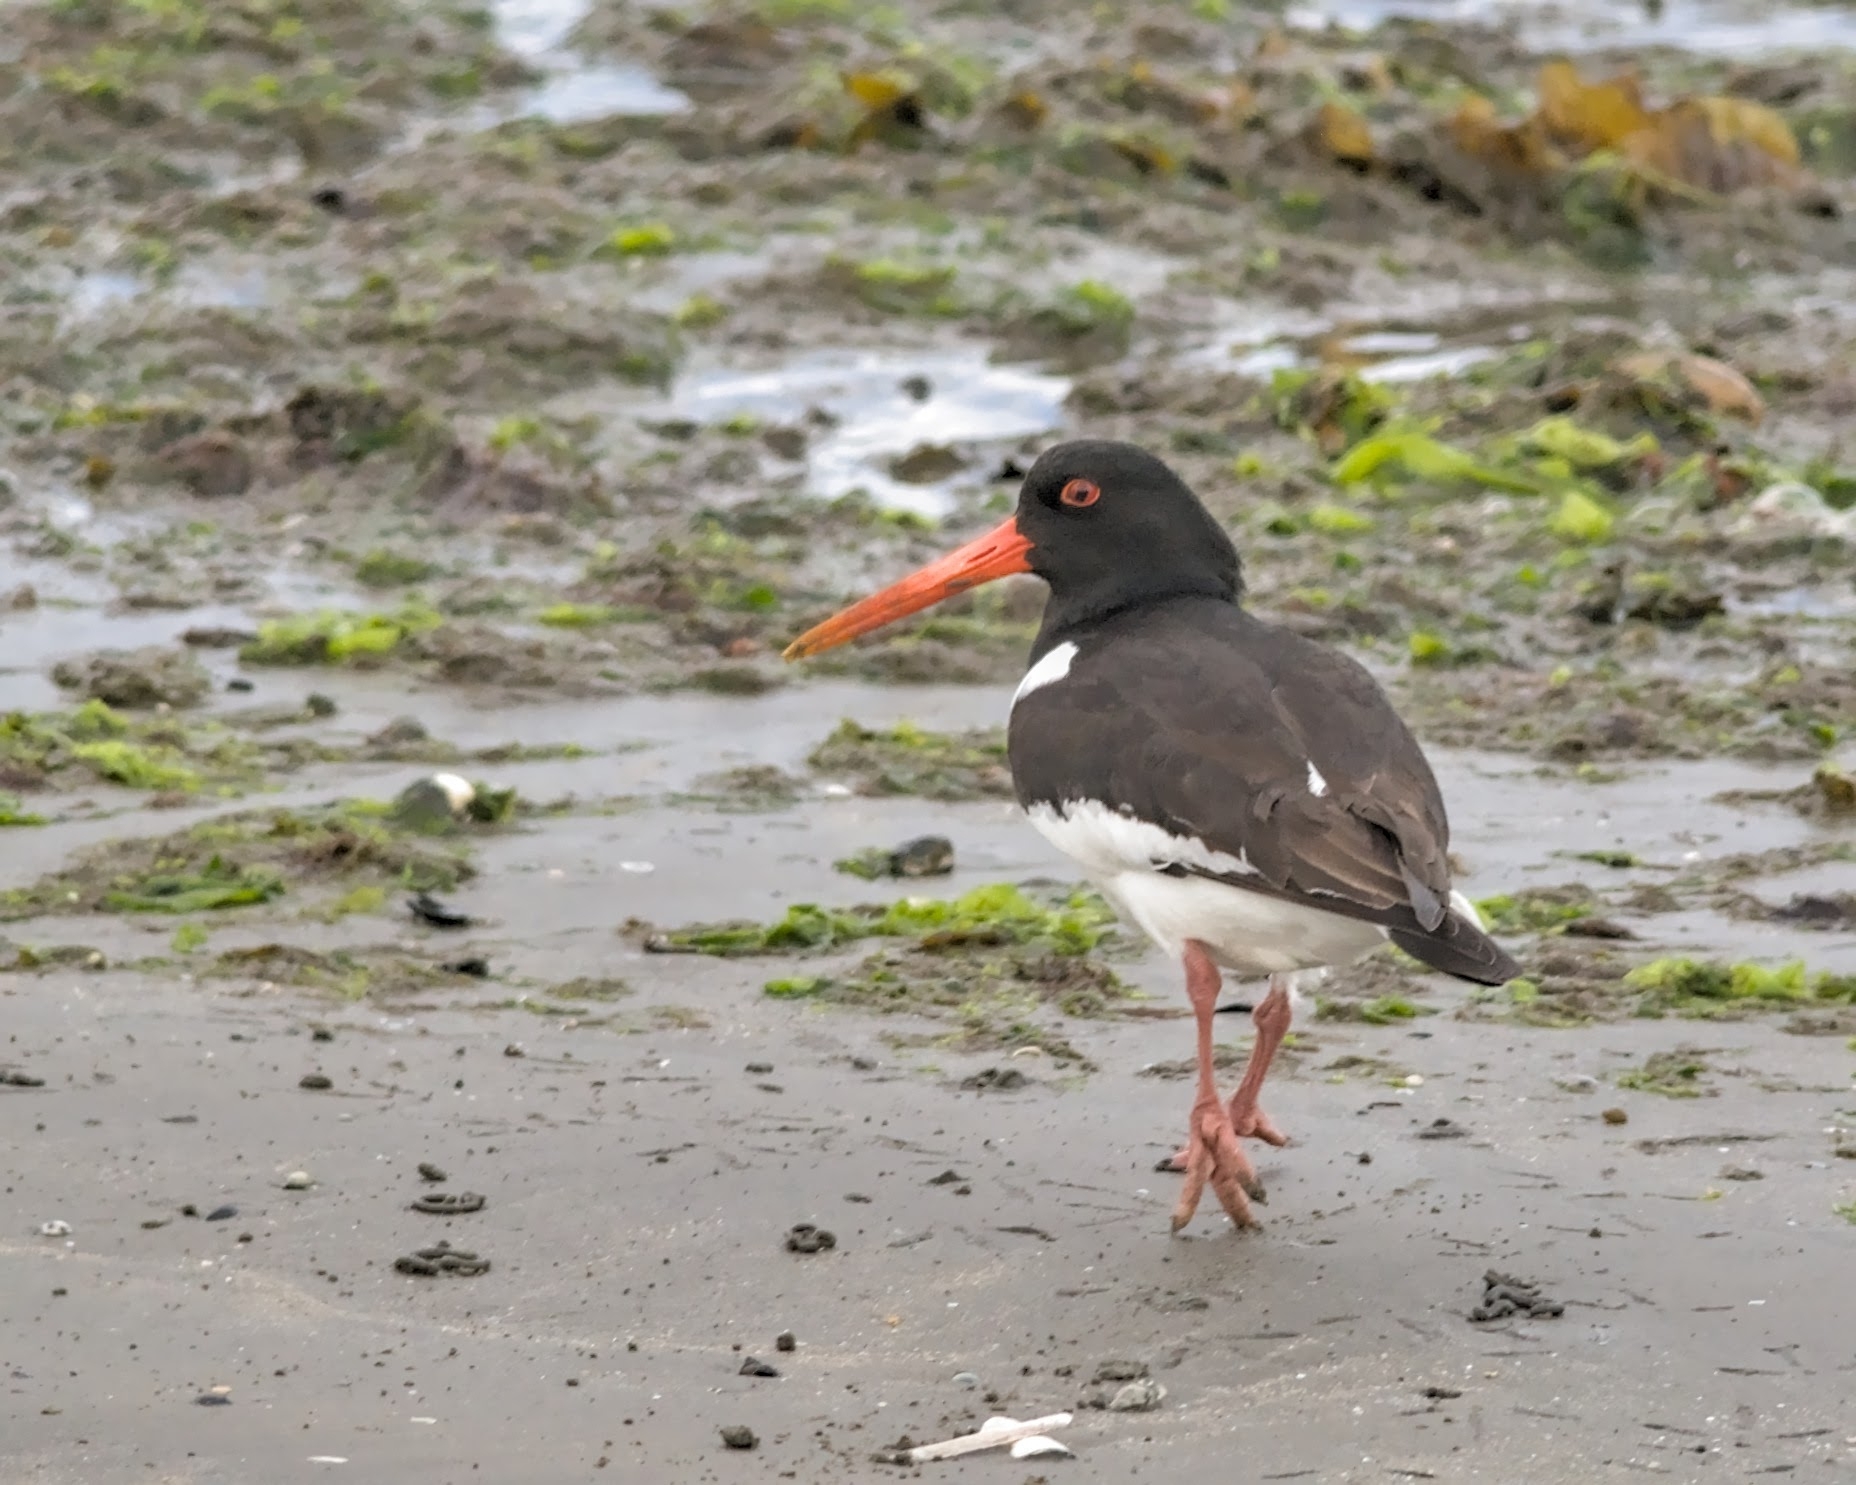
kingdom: Animalia
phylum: Chordata
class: Aves
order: Charadriiformes
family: Haematopodidae
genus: Haematopus
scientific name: Haematopus ostralegus
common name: Eurasian oystercatcher
